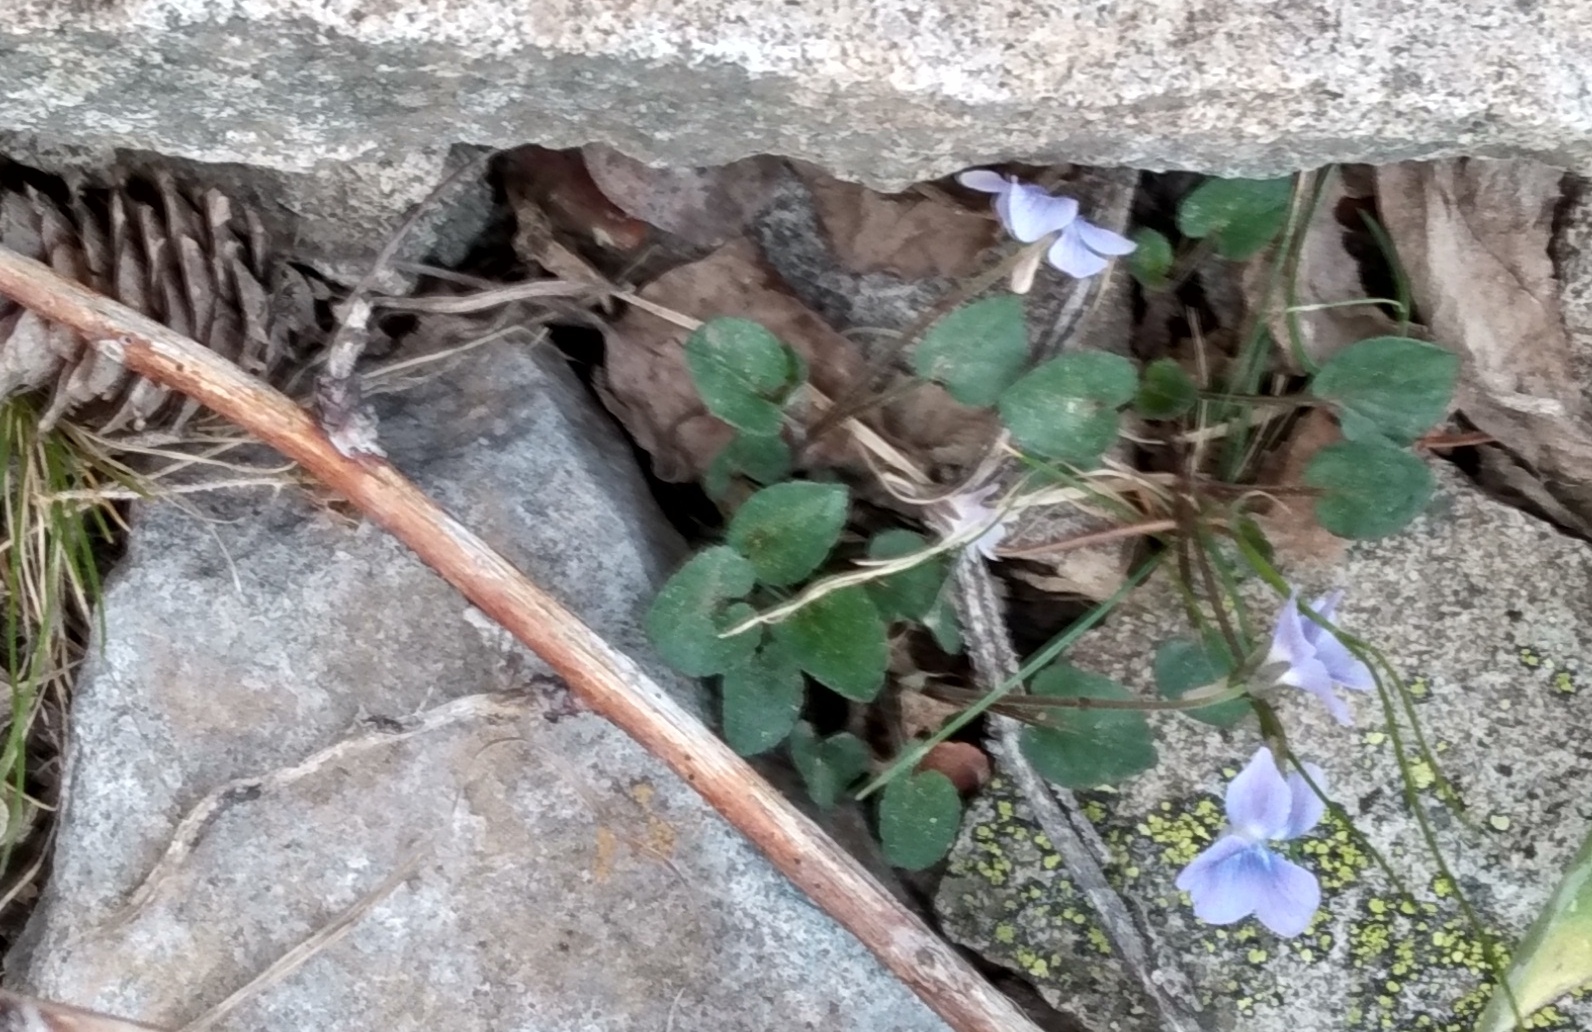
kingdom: Plantae
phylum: Tracheophyta
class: Magnoliopsida
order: Malpighiales
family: Violaceae
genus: Viola
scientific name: Viola adunca
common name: Sand violet
